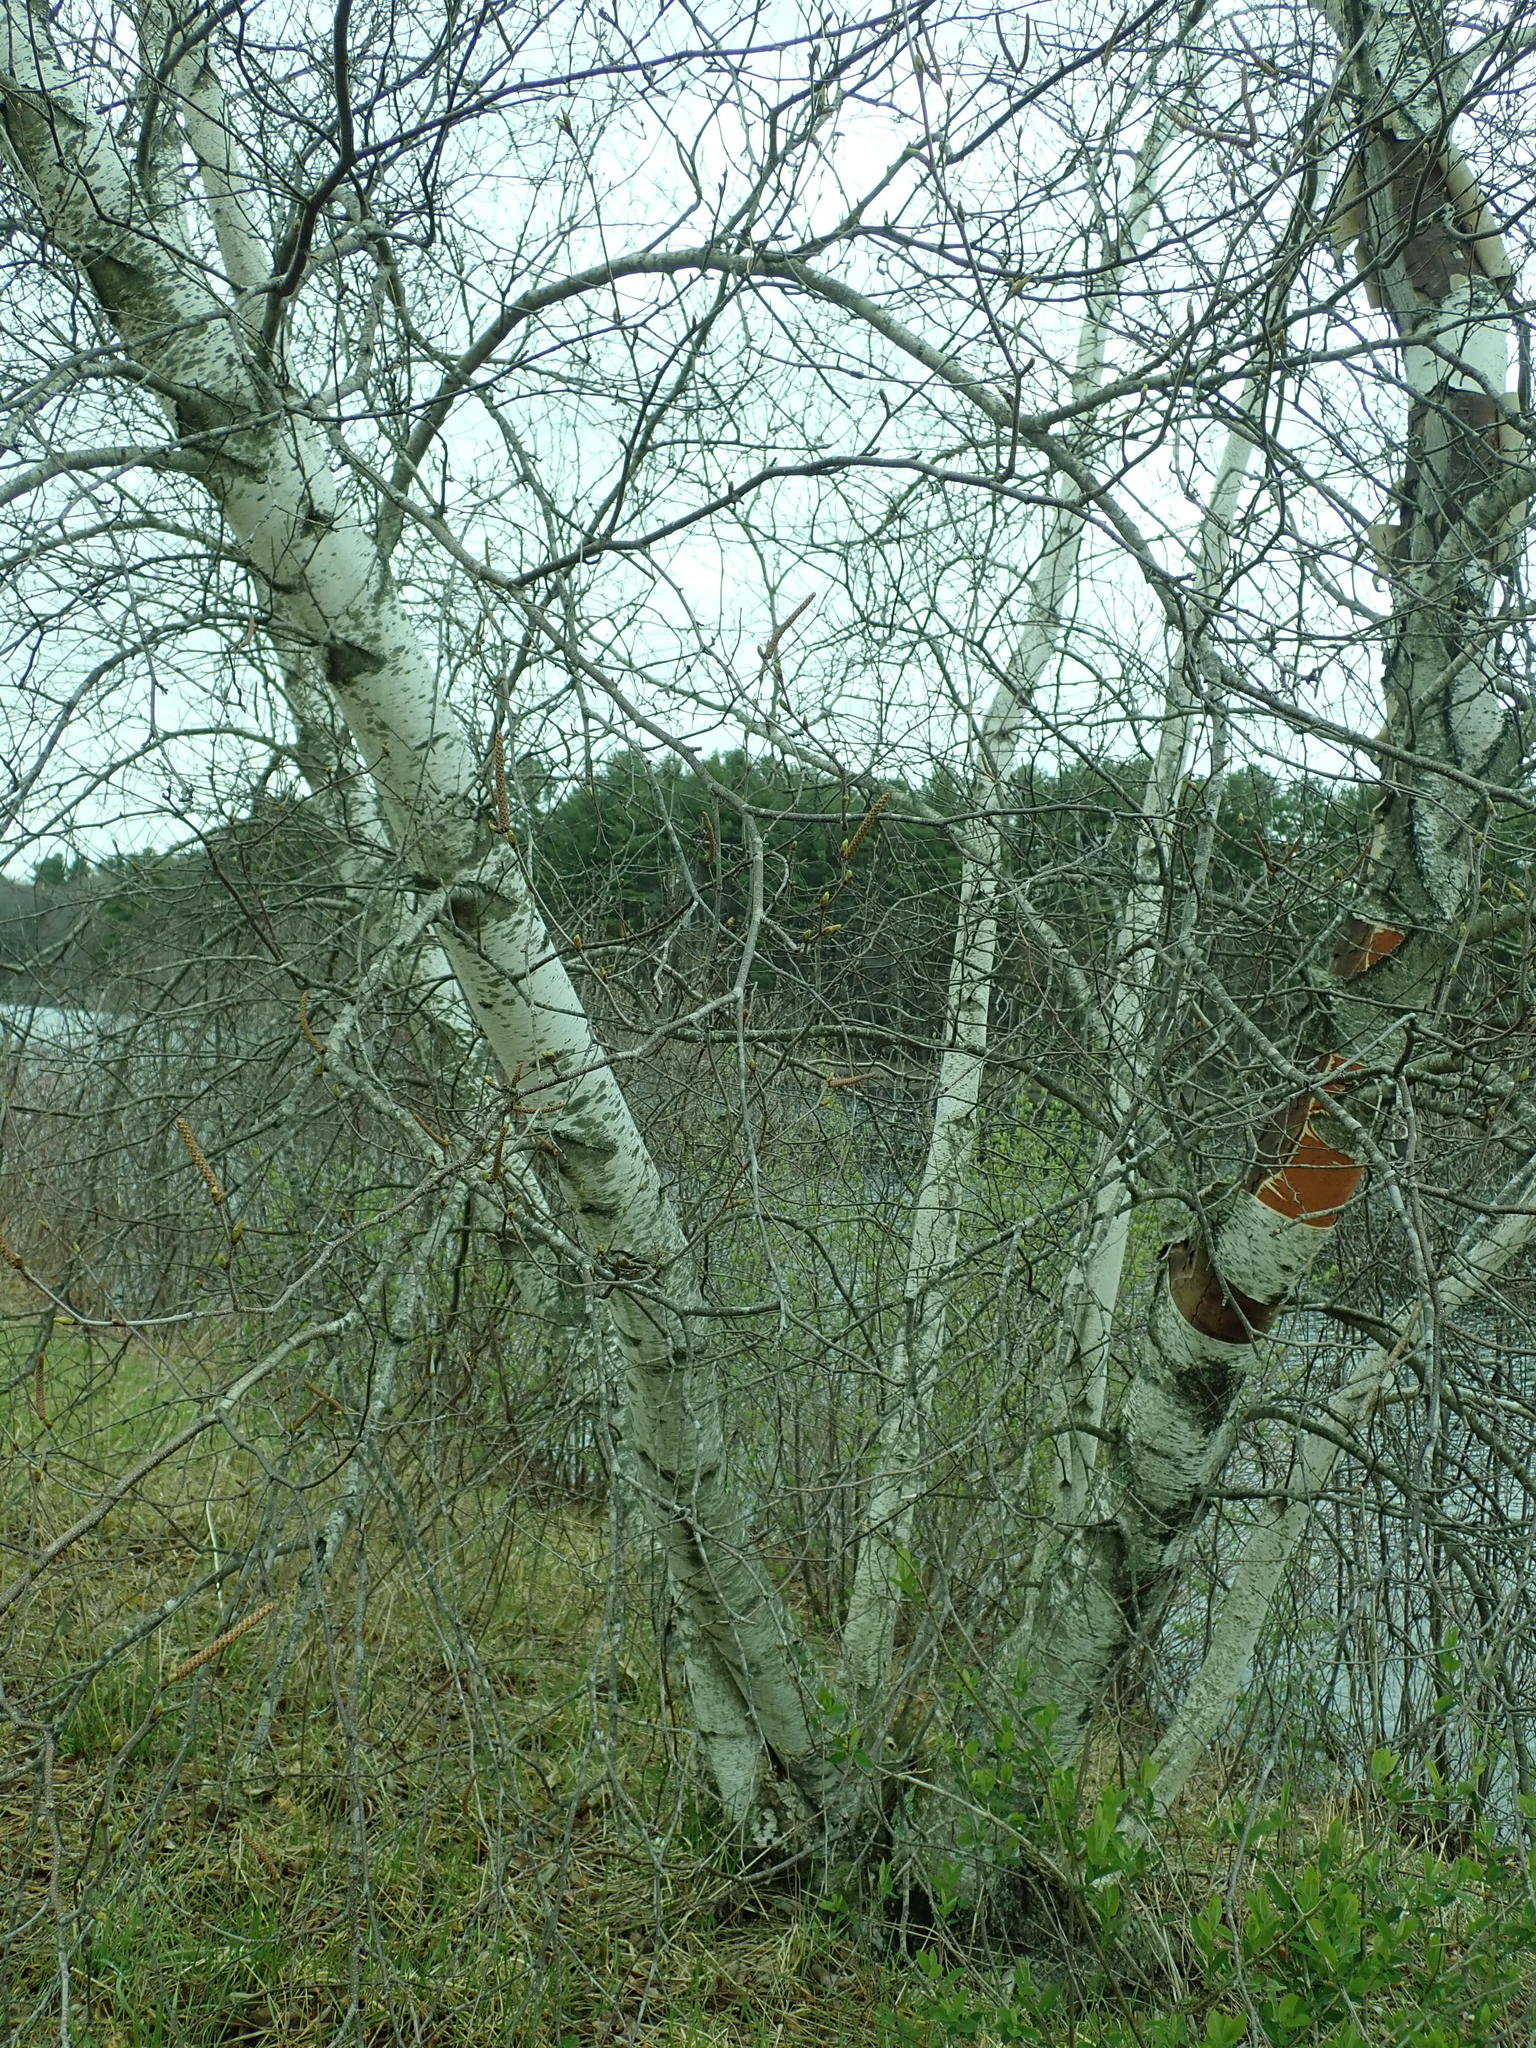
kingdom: Plantae
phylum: Tracheophyta
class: Magnoliopsida
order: Fagales
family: Betulaceae
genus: Betula
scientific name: Betula papyrifera
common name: Paper birch
